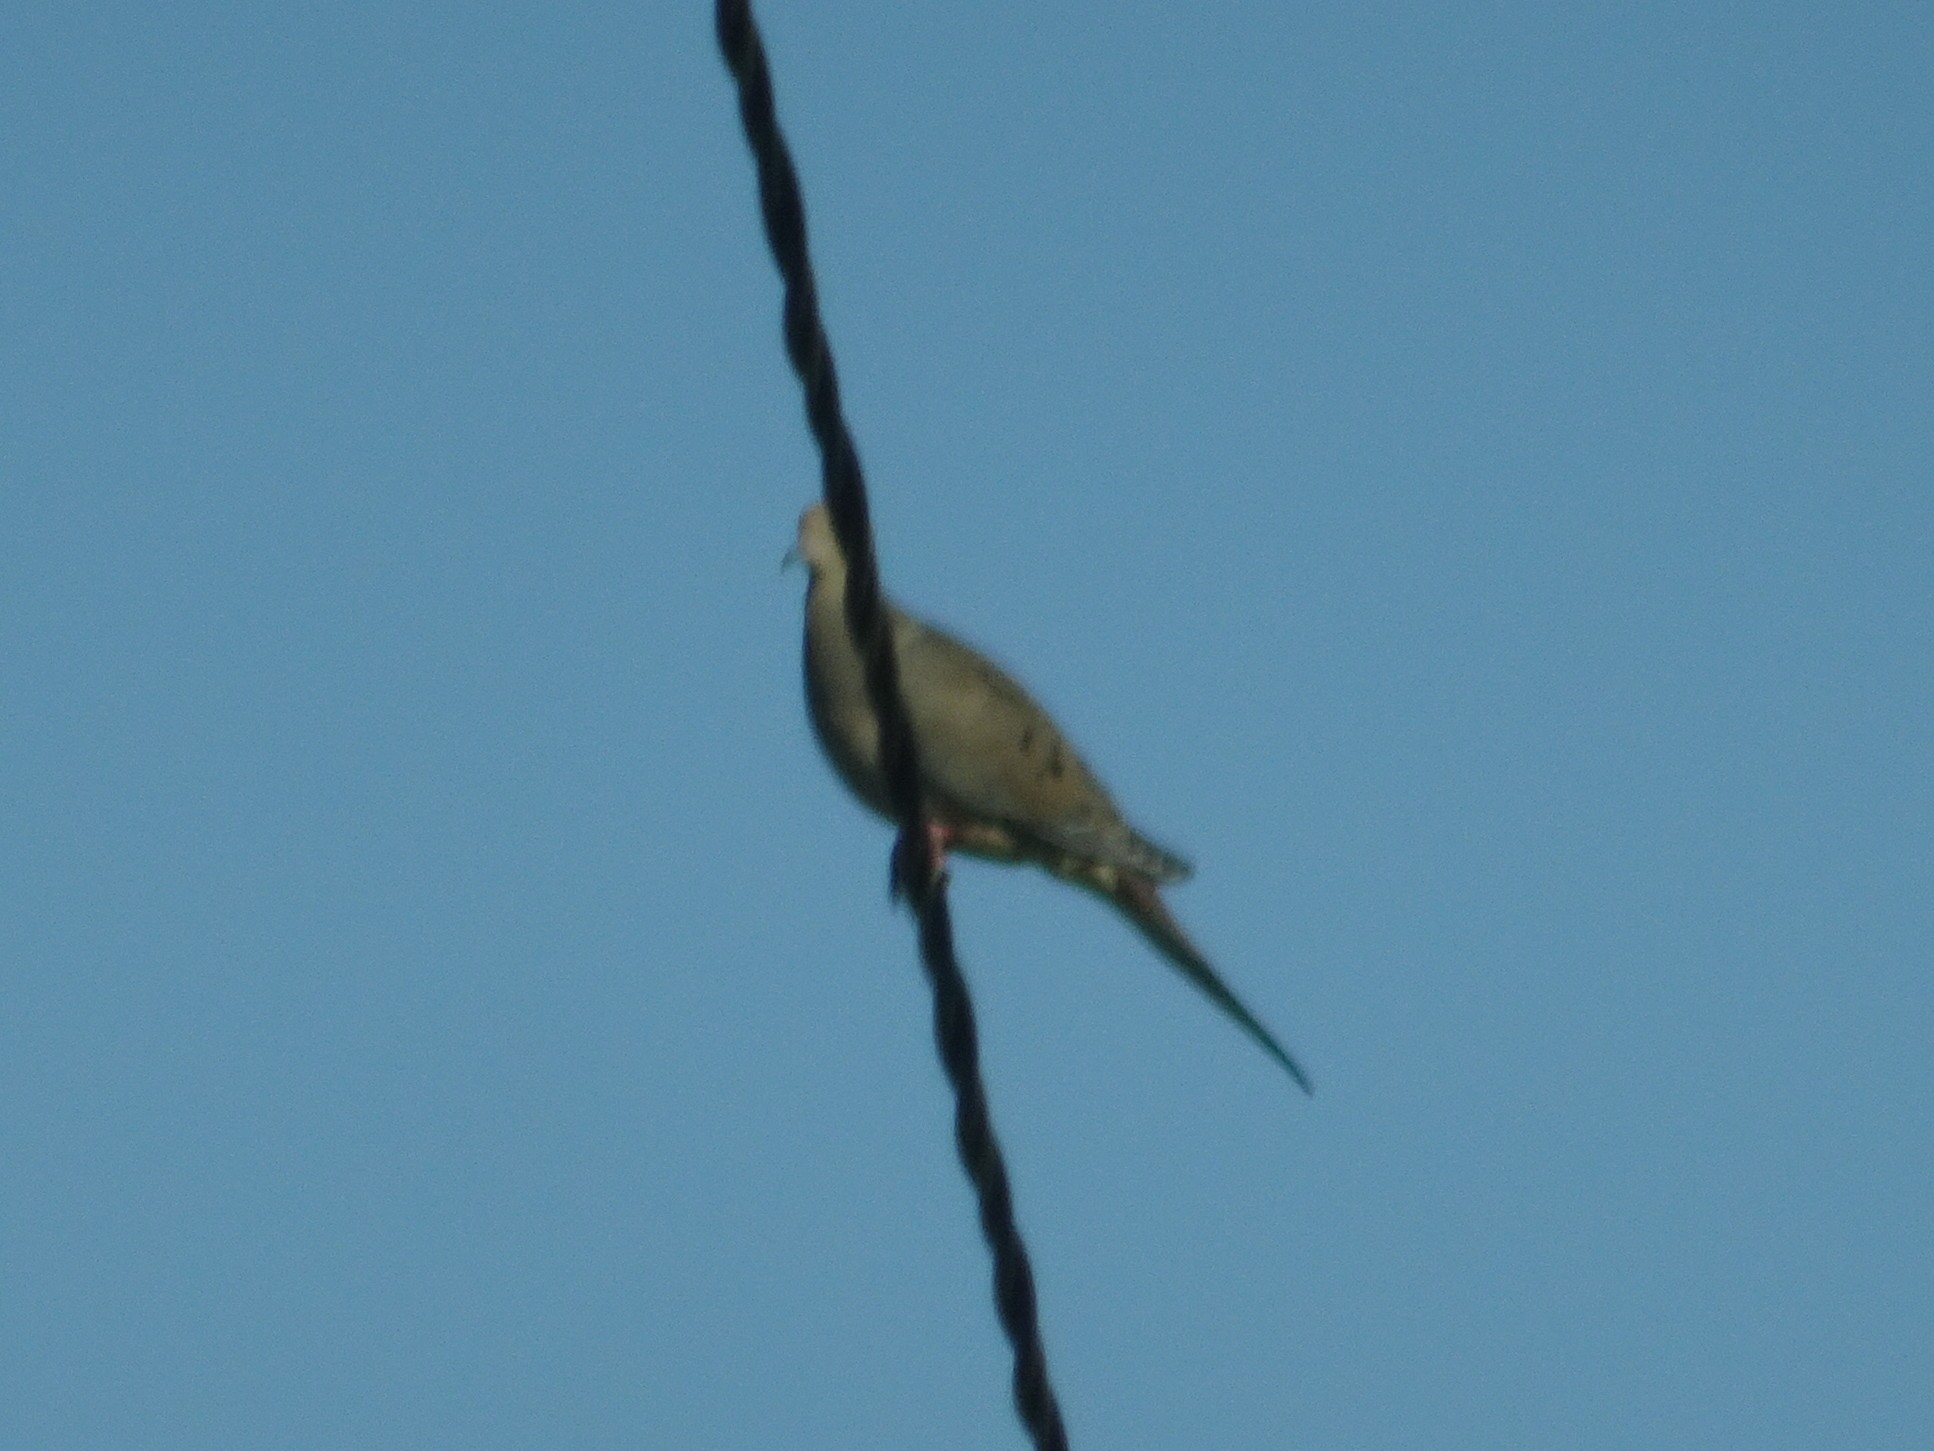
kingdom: Animalia
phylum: Chordata
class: Aves
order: Columbiformes
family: Columbidae
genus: Zenaida
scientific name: Zenaida macroura
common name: Mourning dove
